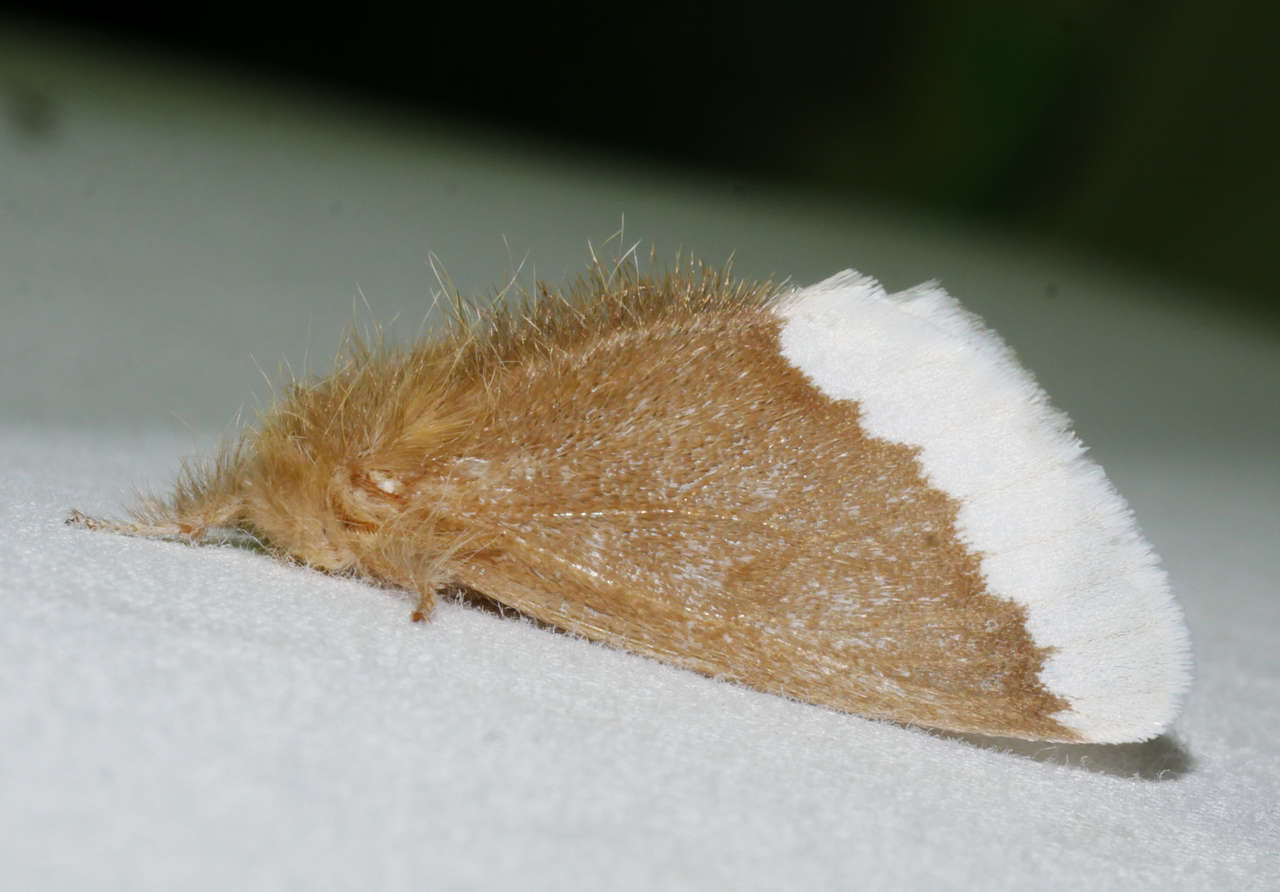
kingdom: Animalia
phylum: Arthropoda
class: Insecta
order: Lepidoptera
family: Erebidae
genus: Euproctis
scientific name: Euproctis
